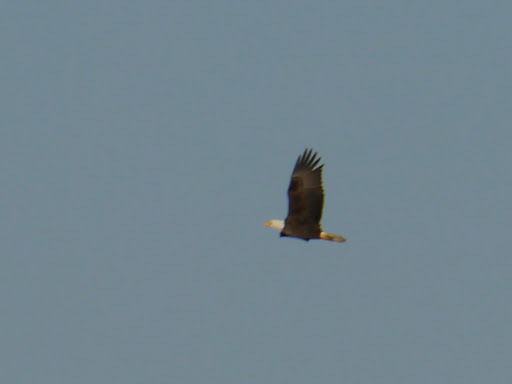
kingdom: Animalia
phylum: Chordata
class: Aves
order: Accipitriformes
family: Accipitridae
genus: Haliaeetus
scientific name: Haliaeetus leucocephalus
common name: Bald eagle
